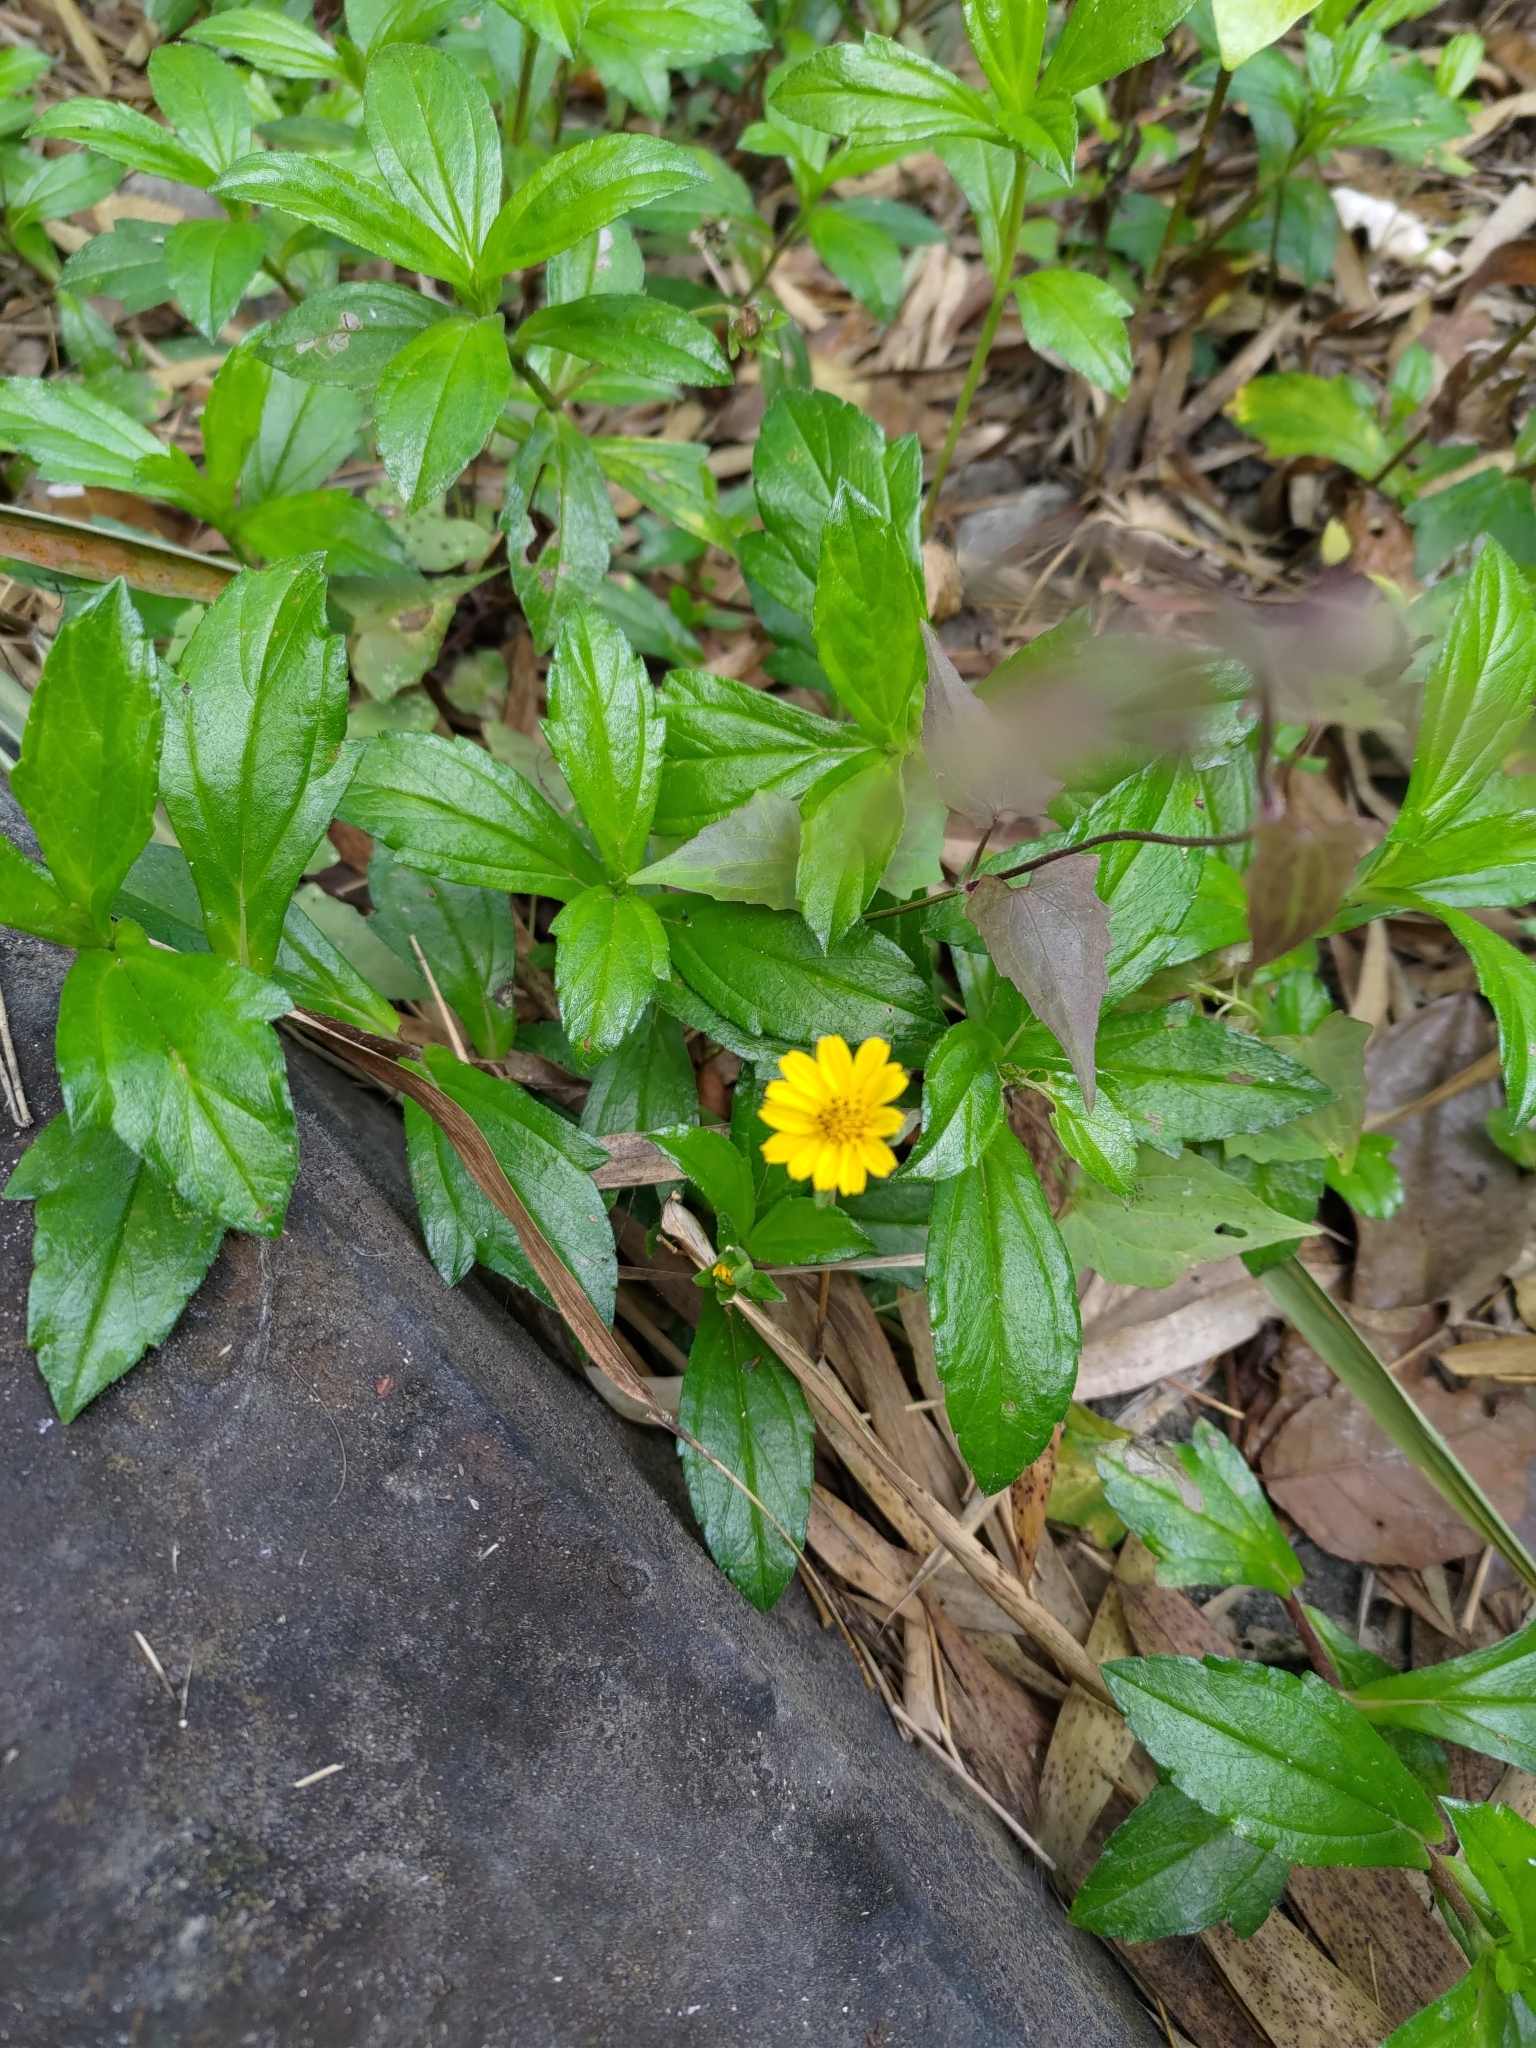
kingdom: Plantae
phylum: Tracheophyta
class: Magnoliopsida
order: Asterales
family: Asteraceae
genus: Sphagneticola
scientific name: Sphagneticola trilobata
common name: Bay biscayne creeping-oxeye
